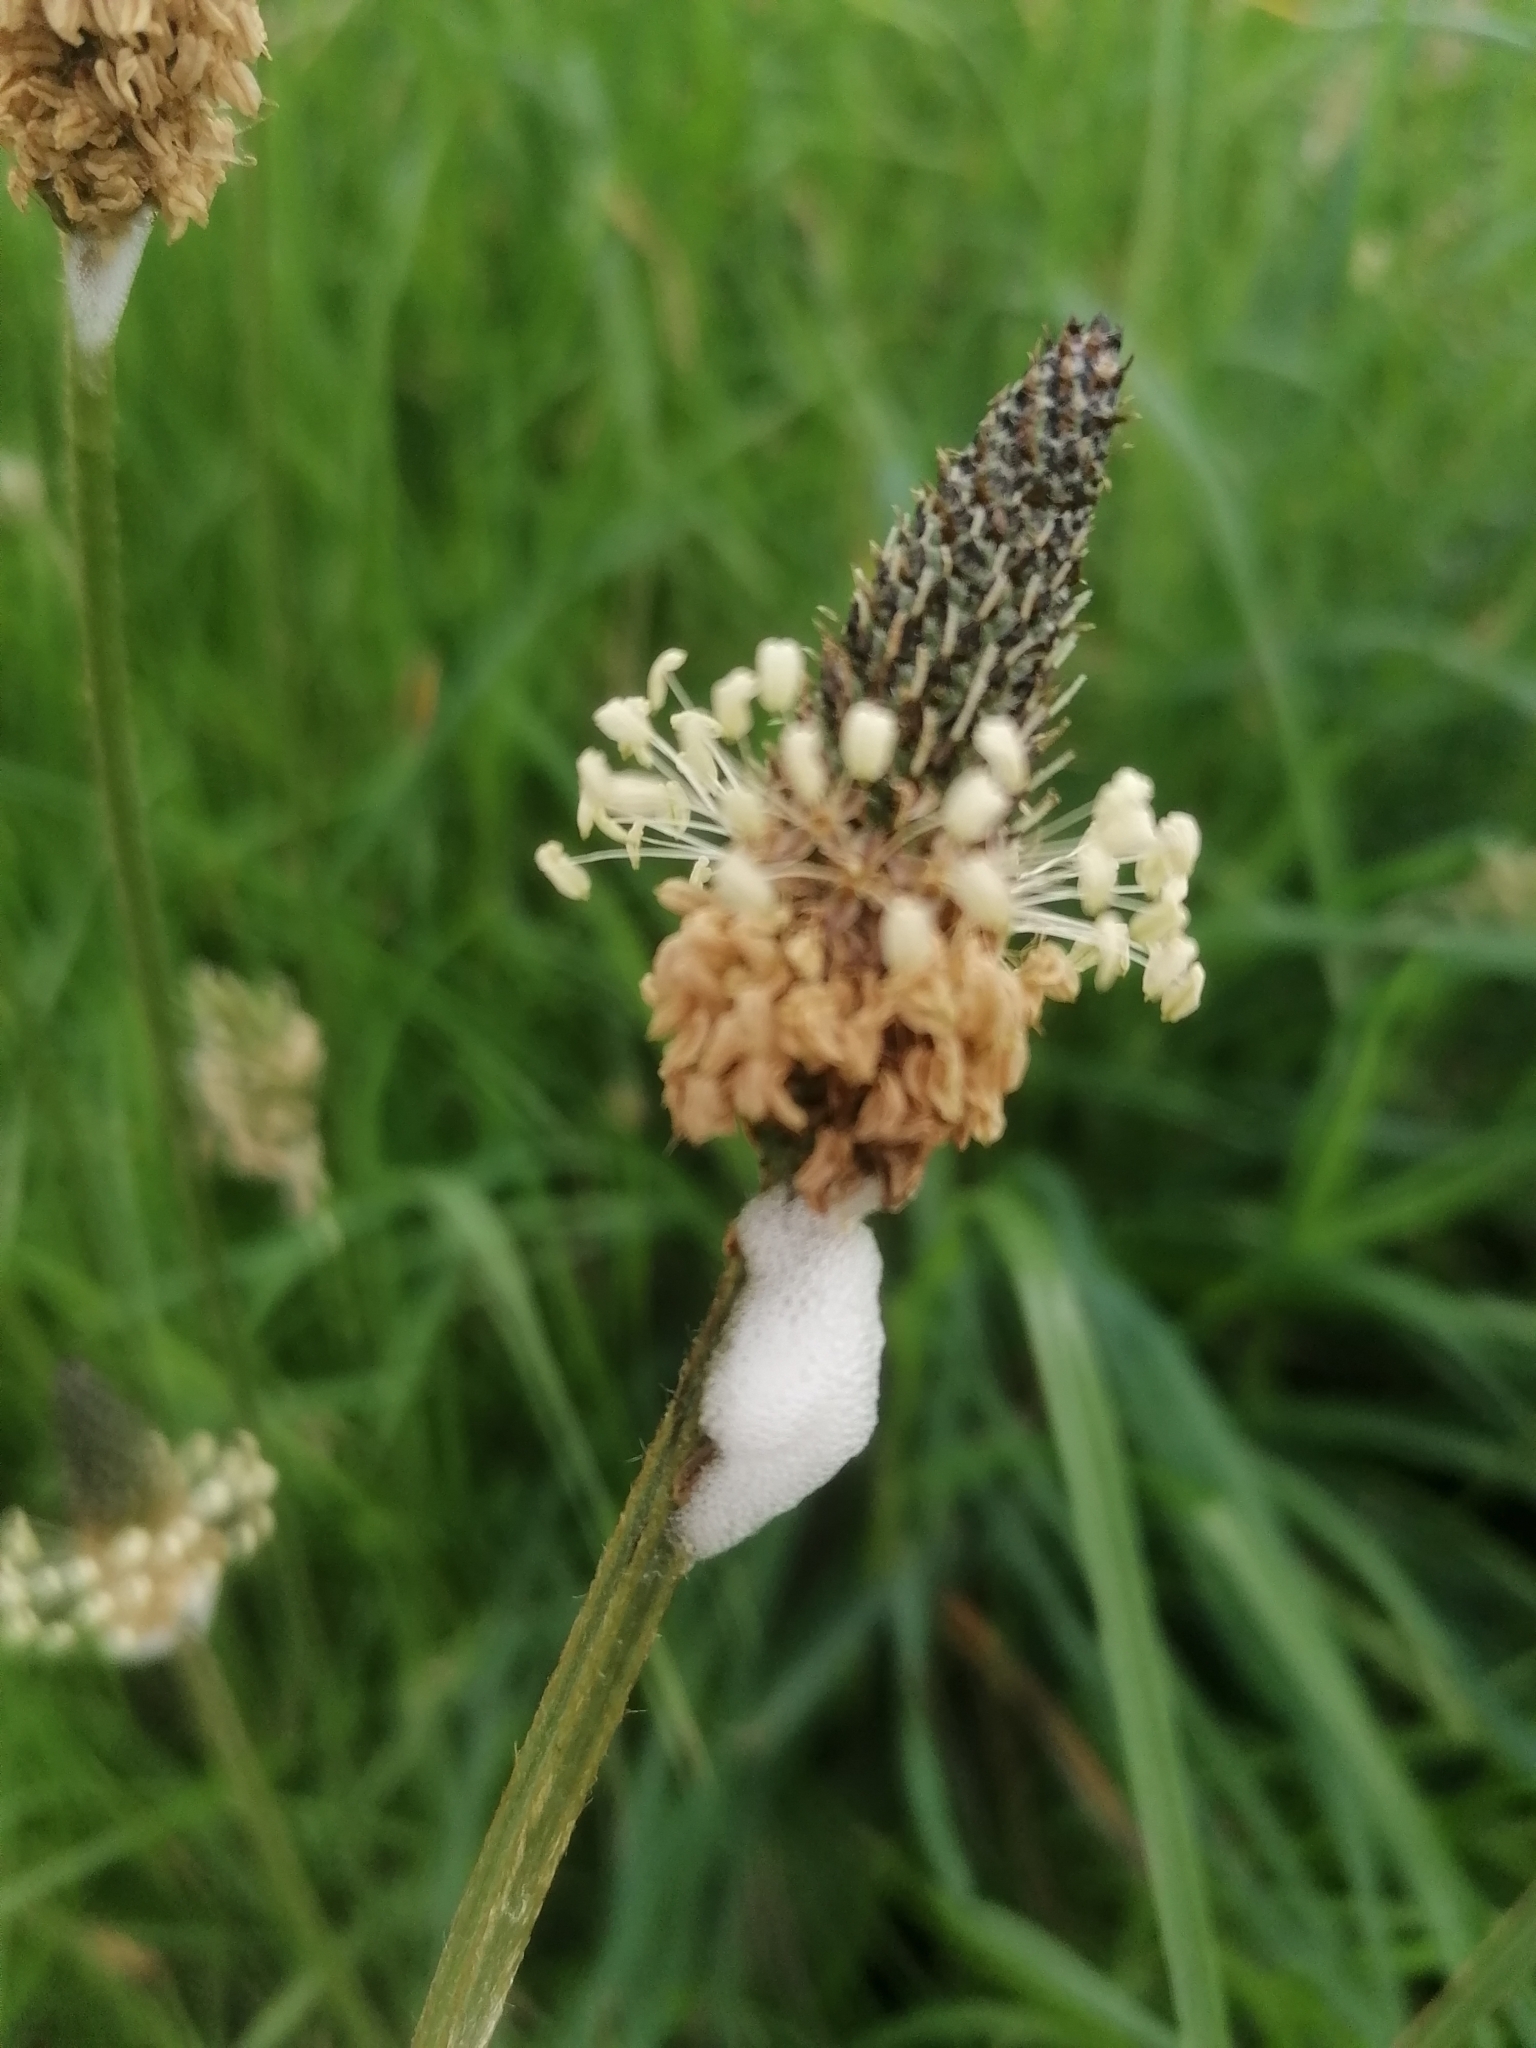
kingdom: Plantae
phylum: Tracheophyta
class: Magnoliopsida
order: Lamiales
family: Plantaginaceae
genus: Plantago
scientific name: Plantago lanceolata
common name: Ribwort plantain
